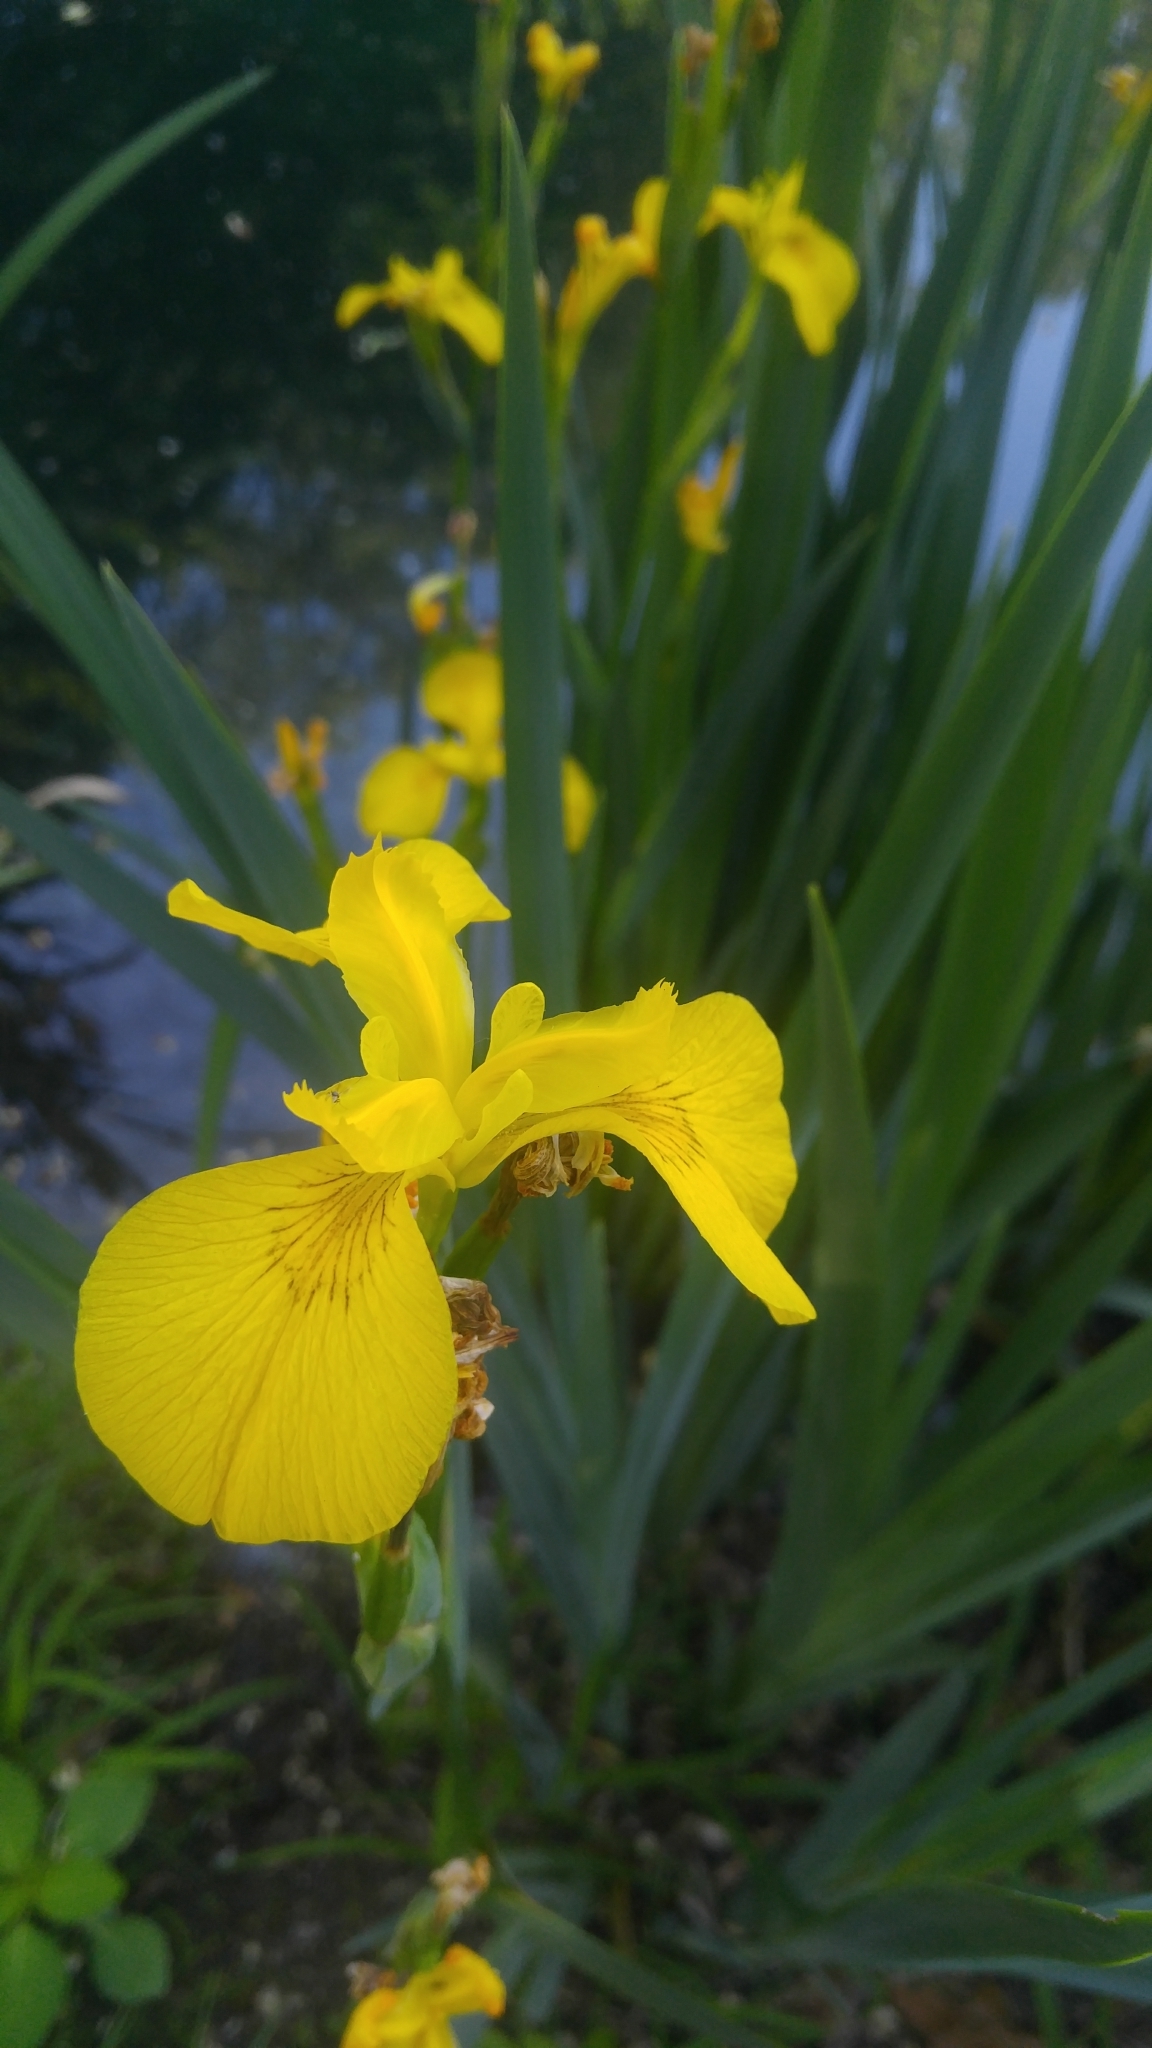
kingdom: Plantae
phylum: Tracheophyta
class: Liliopsida
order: Asparagales
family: Iridaceae
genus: Iris
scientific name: Iris pseudacorus
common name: Yellow flag
